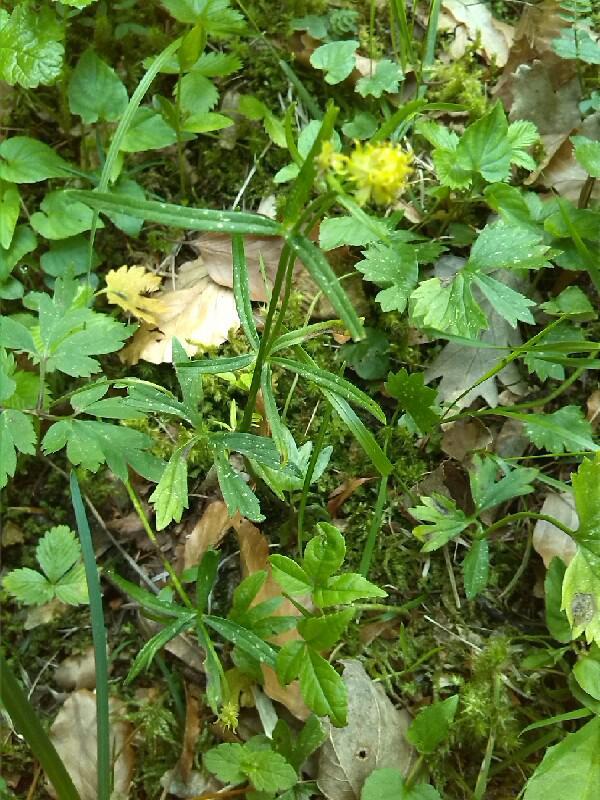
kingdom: Plantae
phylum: Tracheophyta
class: Magnoliopsida
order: Ranunculales
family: Ranunculaceae
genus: Ranunculus
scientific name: Ranunculus auricomus
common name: Goldilocks buttercup
